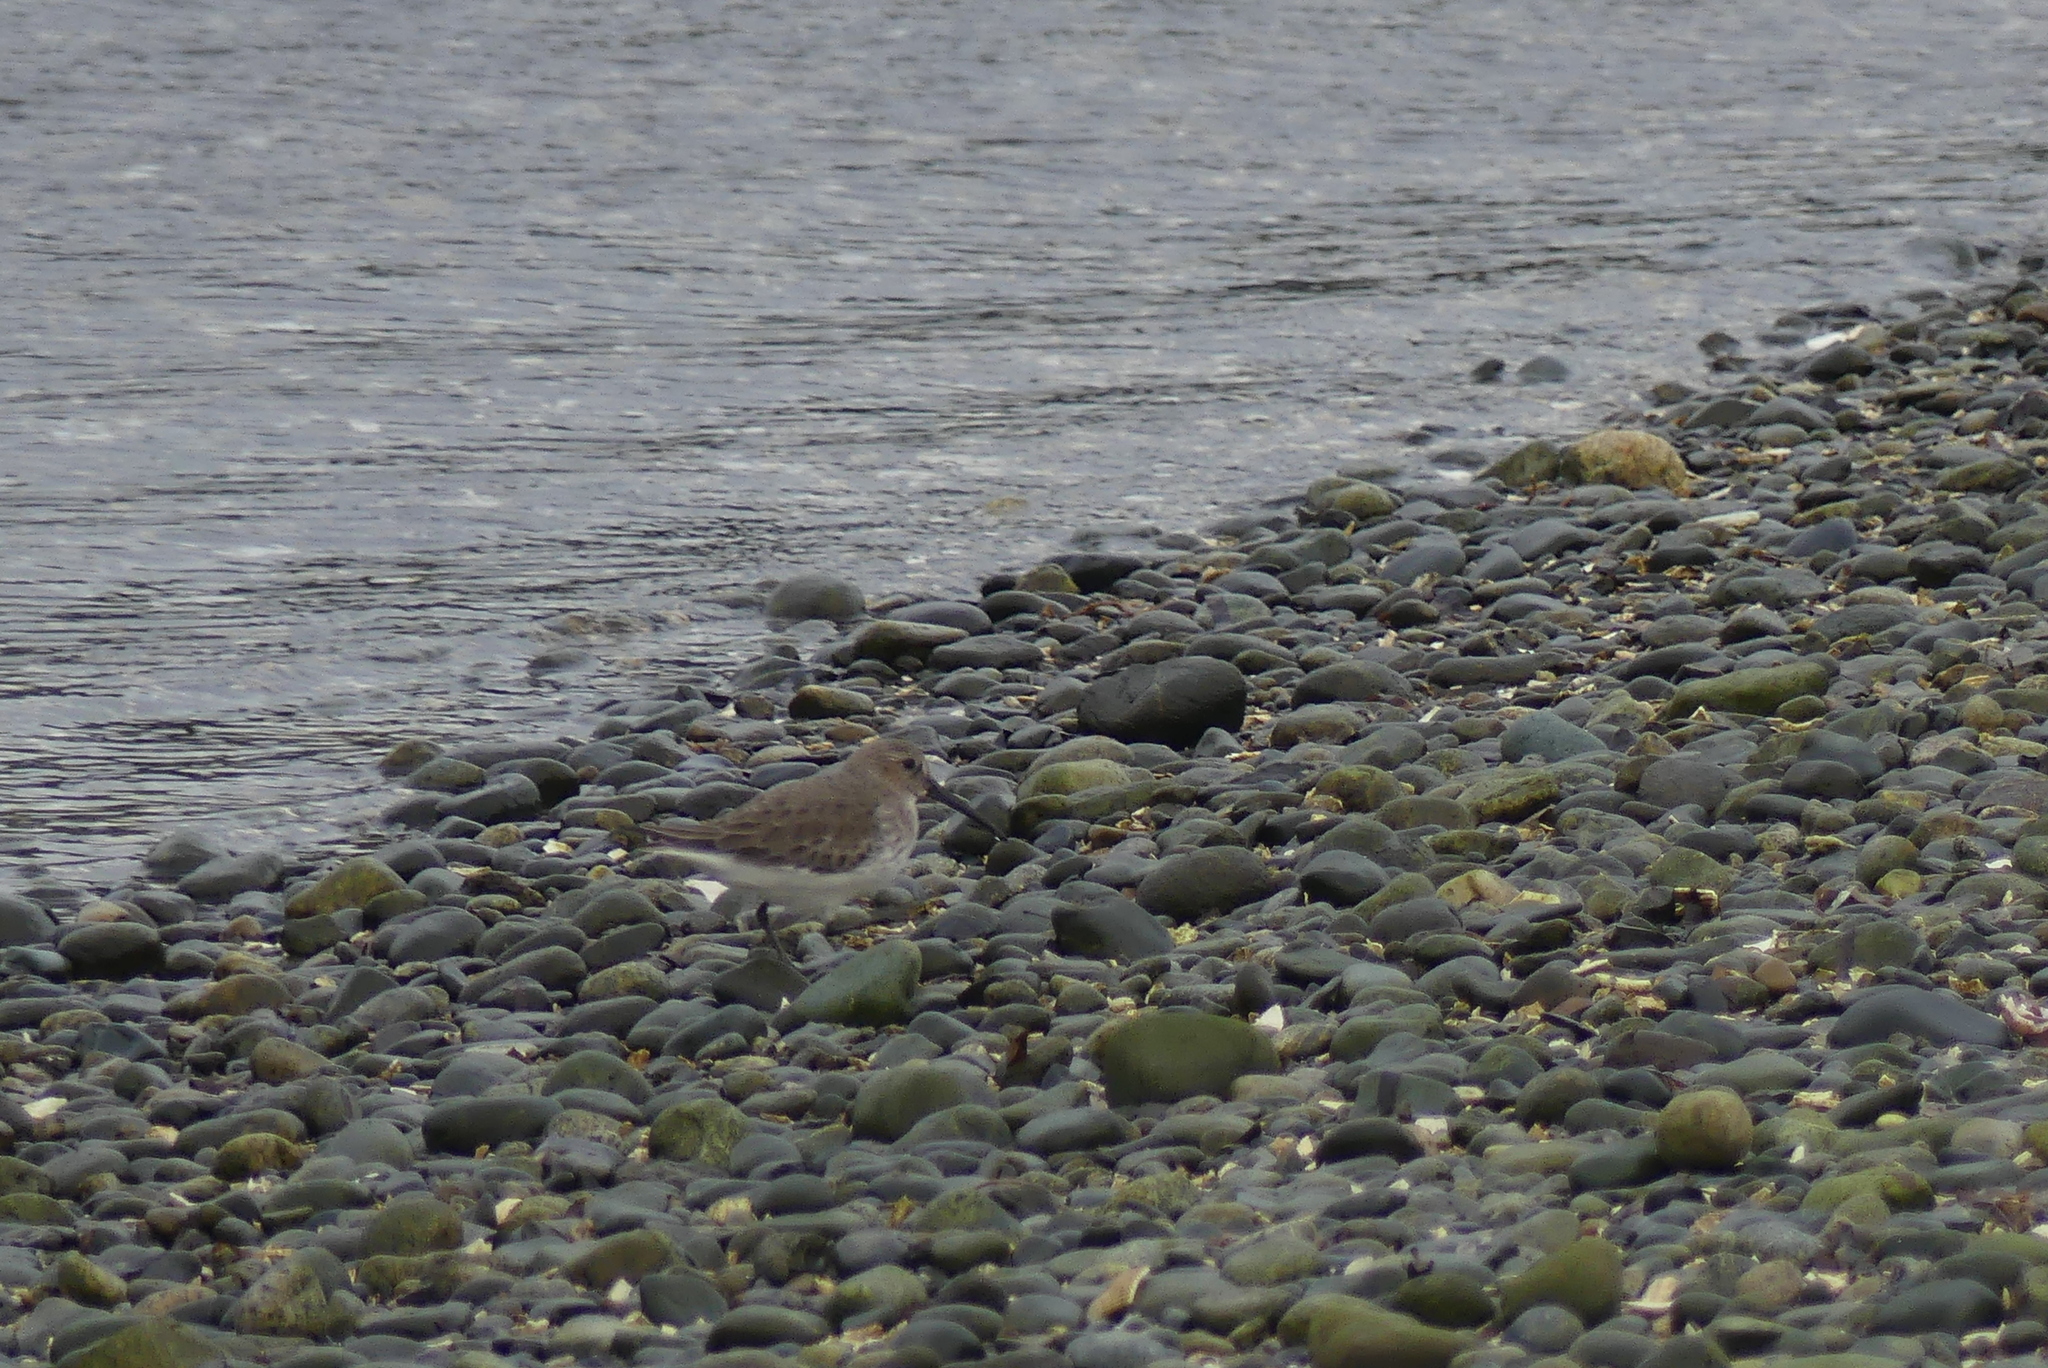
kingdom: Animalia
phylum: Chordata
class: Aves
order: Charadriiformes
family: Scolopacidae
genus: Calidris
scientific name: Calidris alpina
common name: Dunlin
